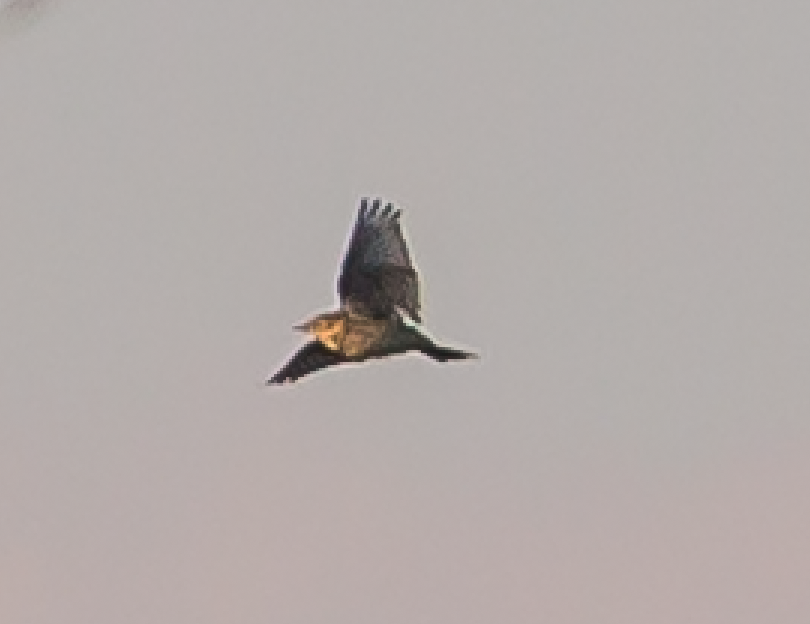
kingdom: Animalia
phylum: Chordata
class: Aves
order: Passeriformes
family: Motacillidae
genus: Anthus
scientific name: Anthus pratensis
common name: Meadow pipit
